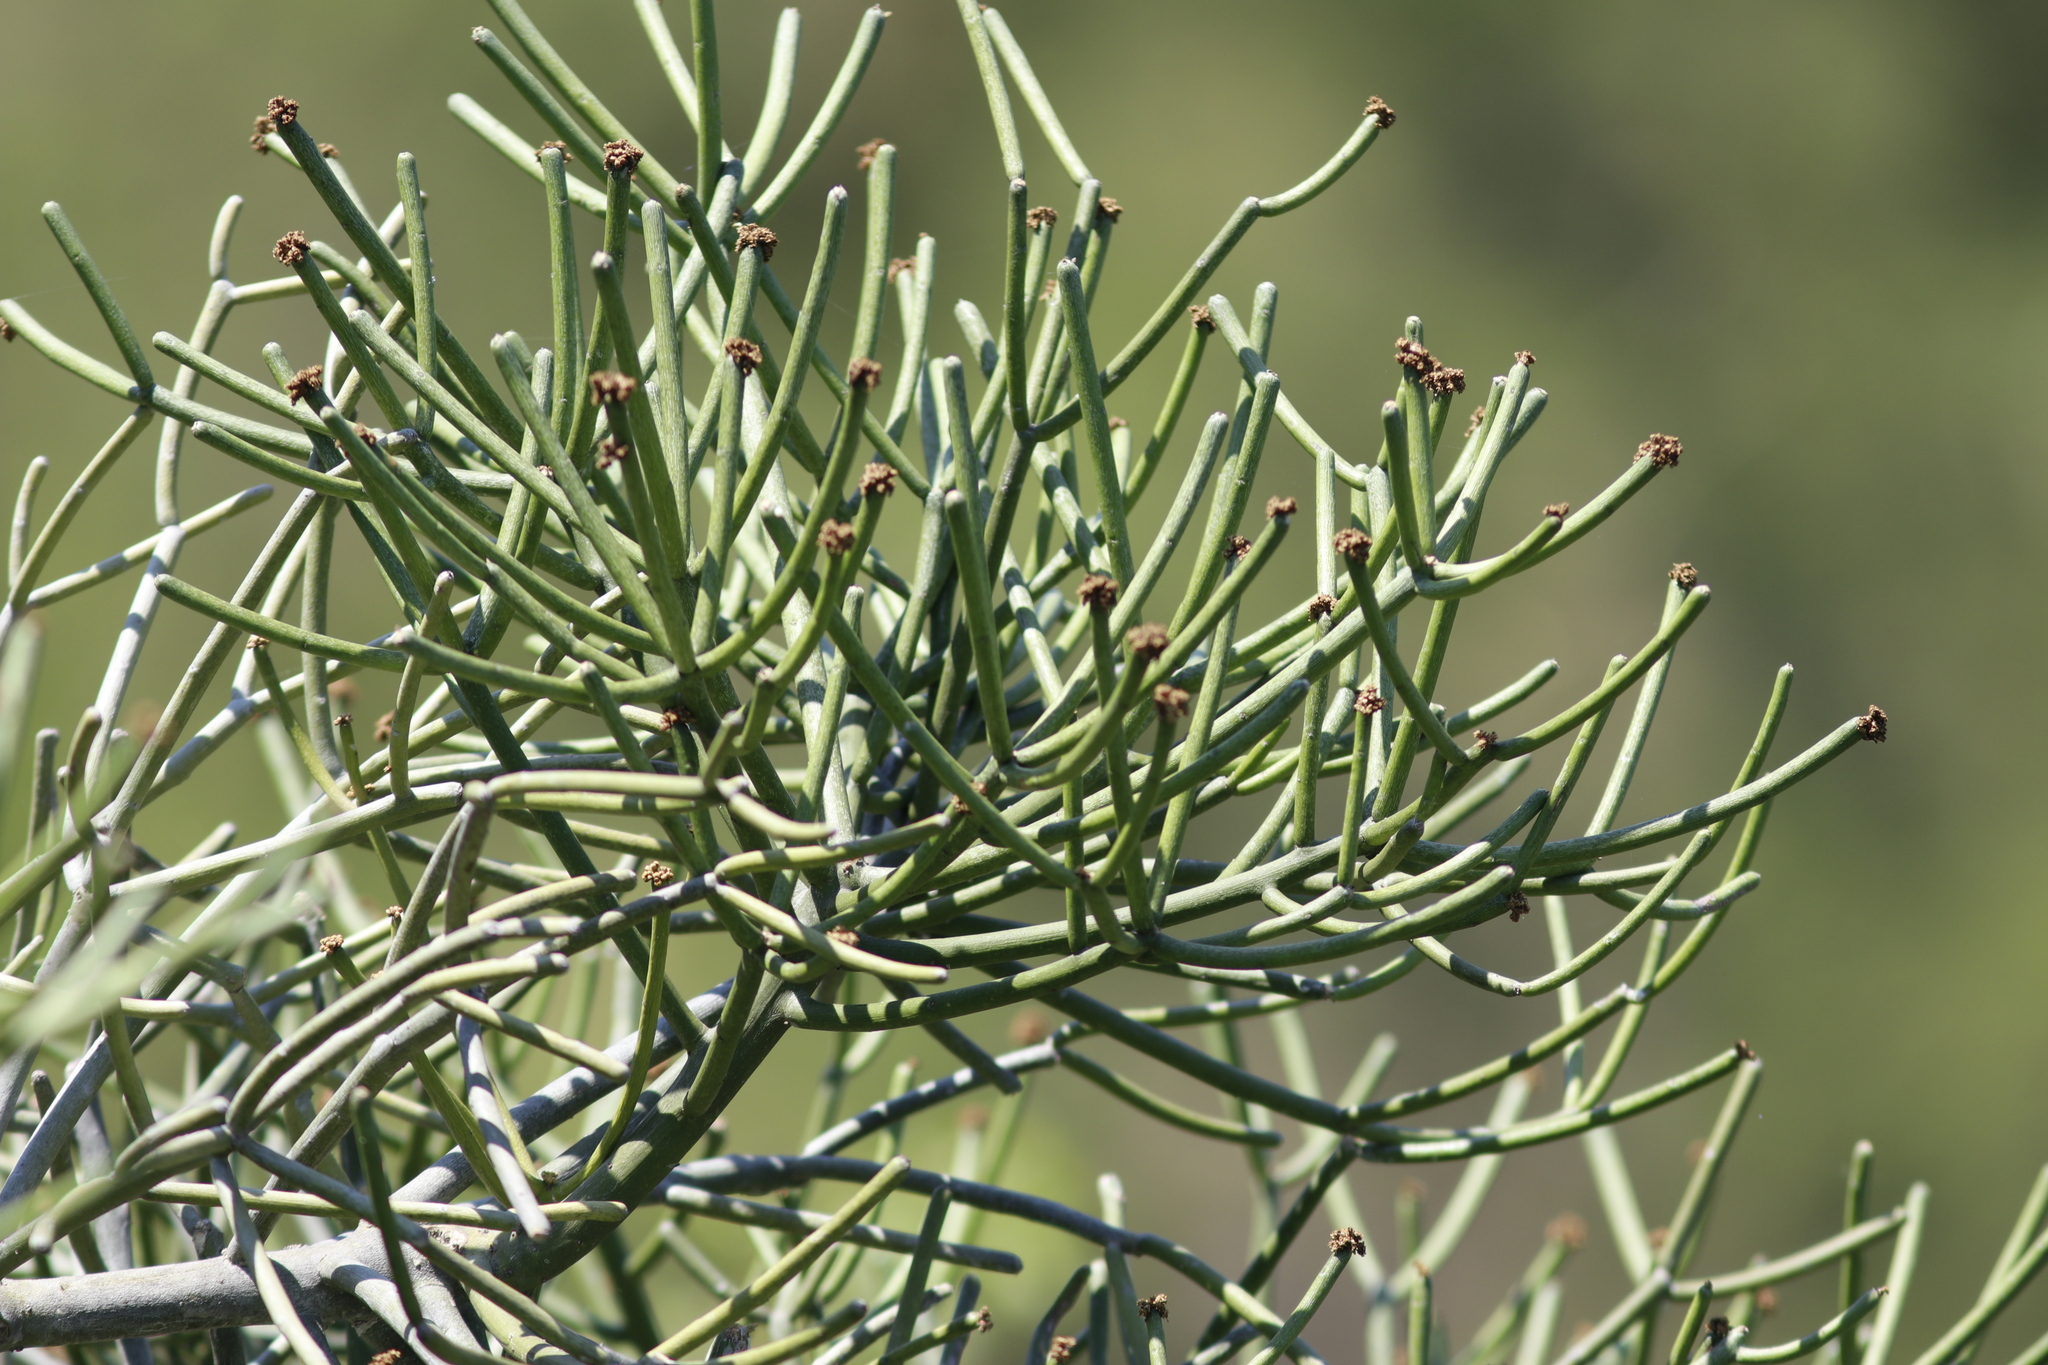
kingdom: Plantae
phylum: Tracheophyta
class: Magnoliopsida
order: Malpighiales
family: Euphorbiaceae
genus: Euphorbia
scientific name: Euphorbia tirucalli
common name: Indiantree spurge
